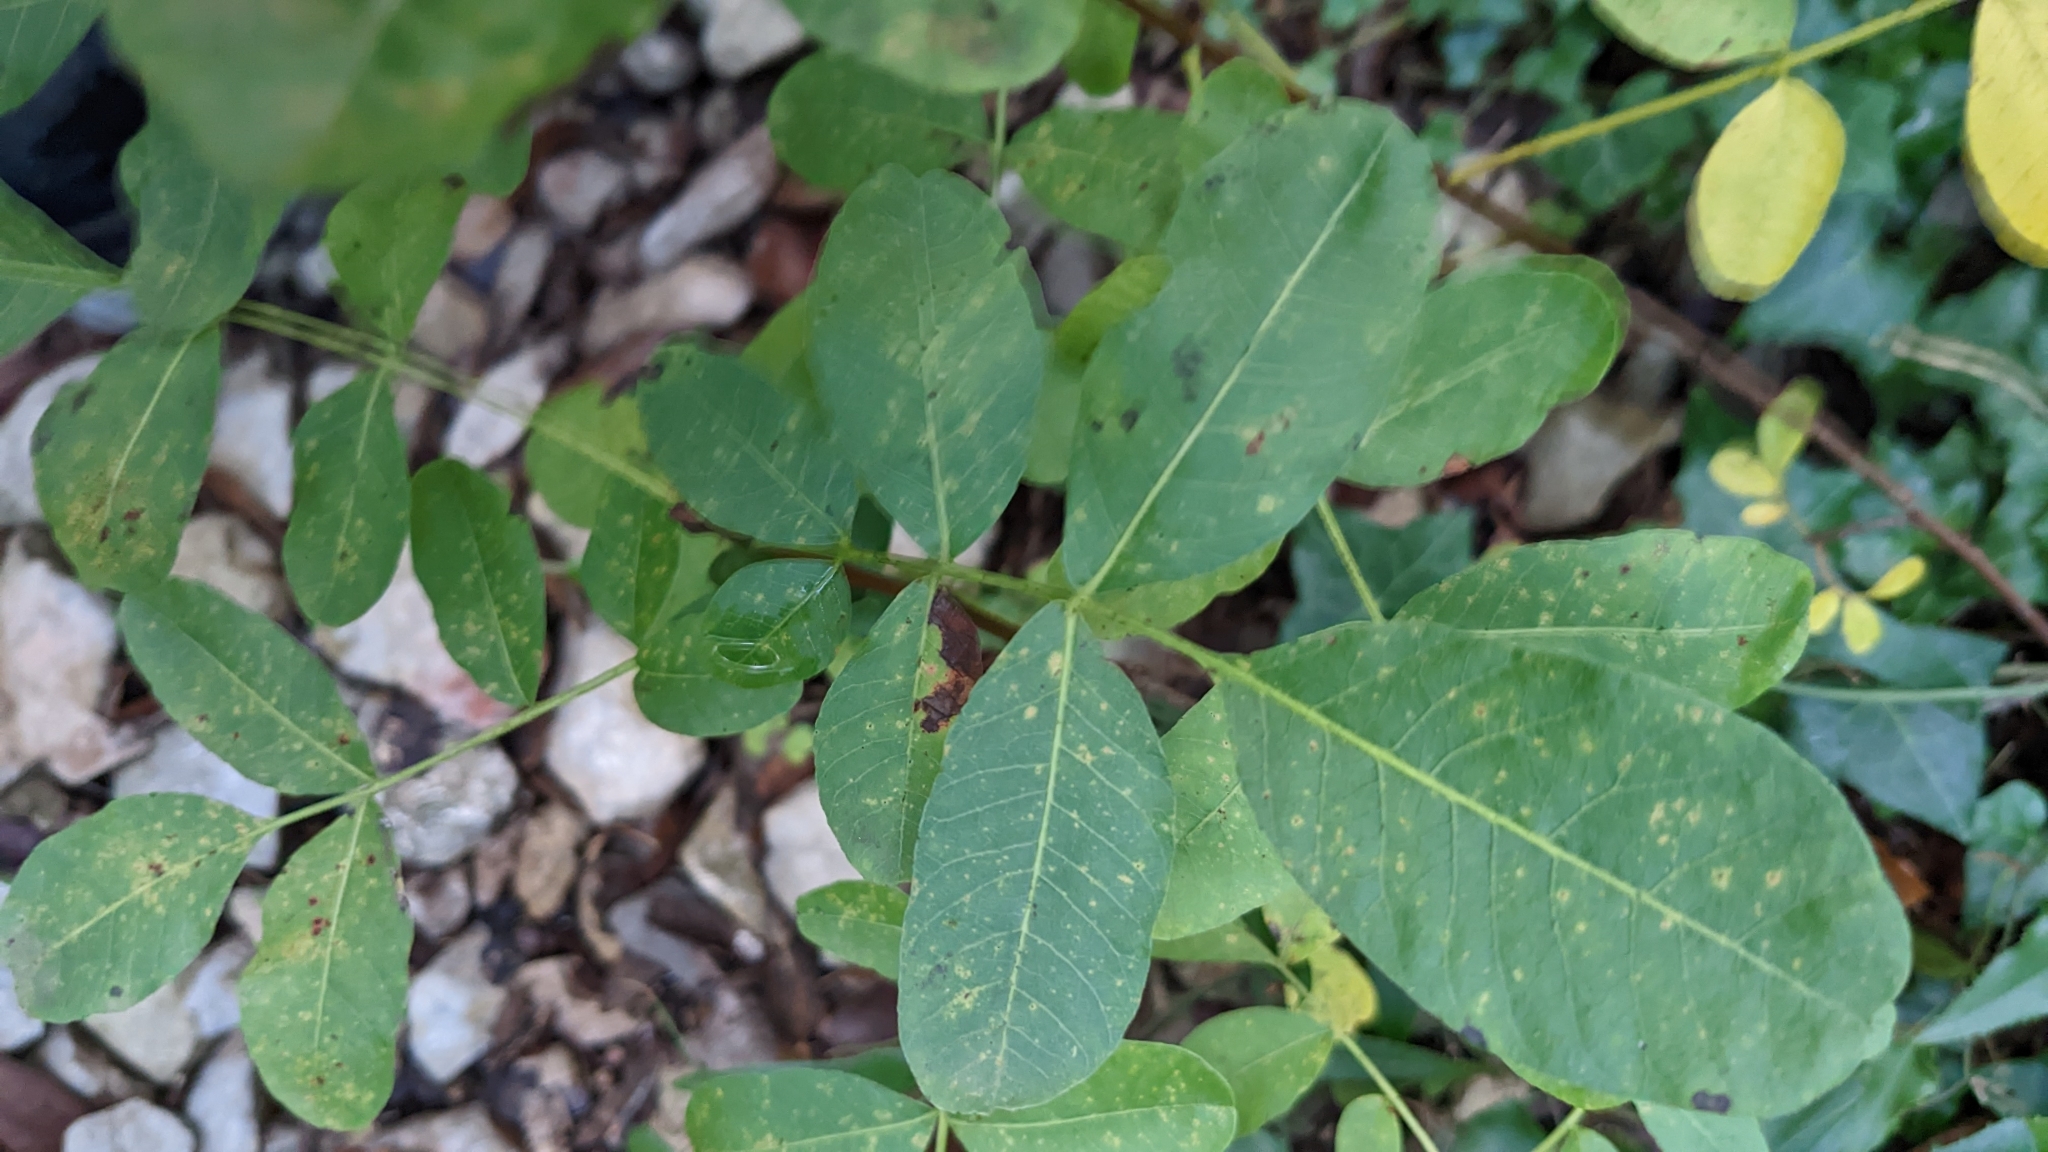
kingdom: Plantae
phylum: Tracheophyta
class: Magnoliopsida
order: Sapindales
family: Anacardiaceae
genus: Pistacia
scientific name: Pistacia terebinthus
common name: Terebinth
